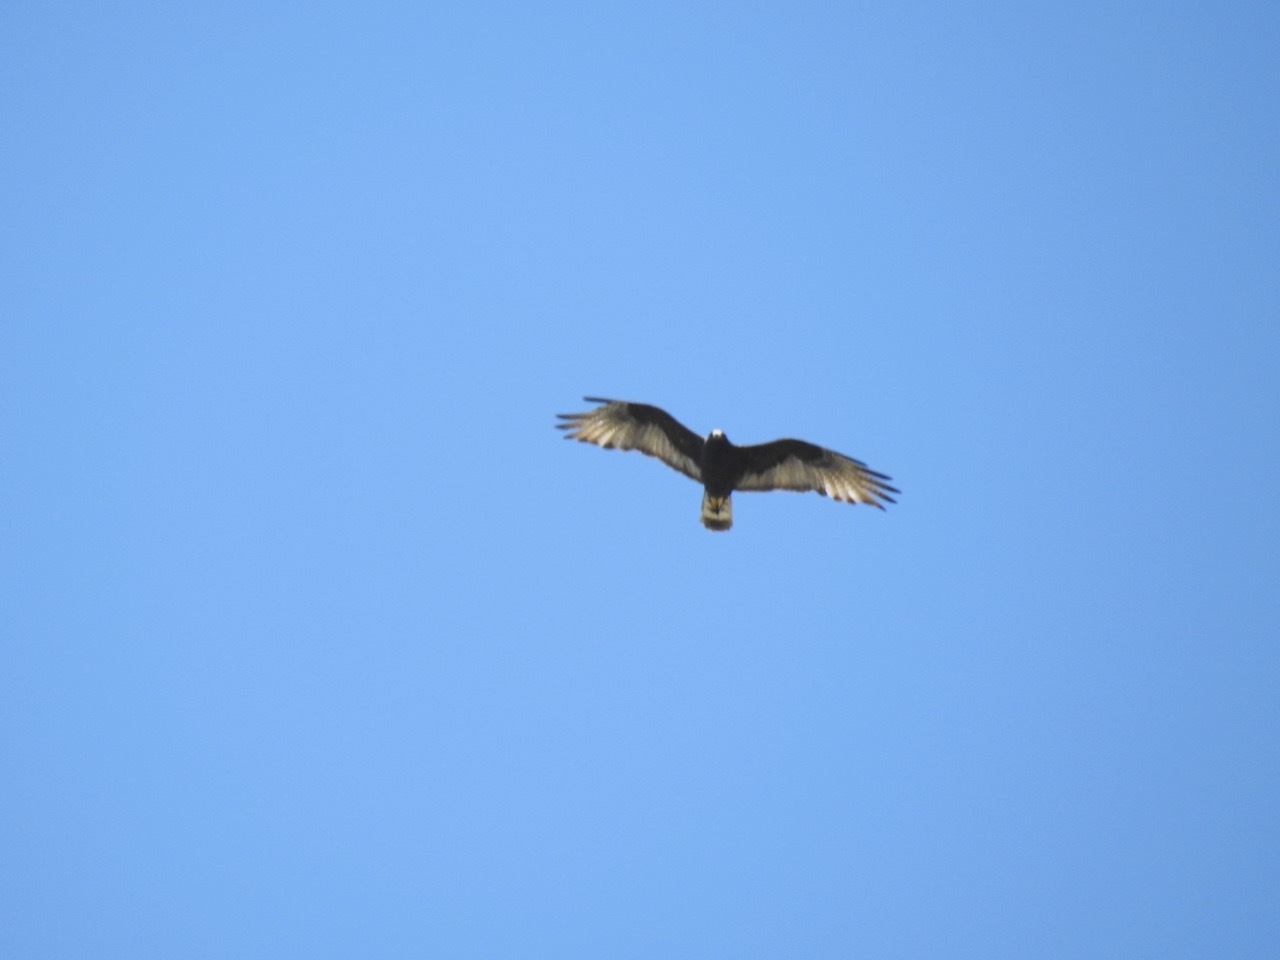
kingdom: Animalia
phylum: Chordata
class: Aves
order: Accipitriformes
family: Accipitridae
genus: Buteo
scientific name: Buteo albonotatus
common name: Zone-tailed hawk
